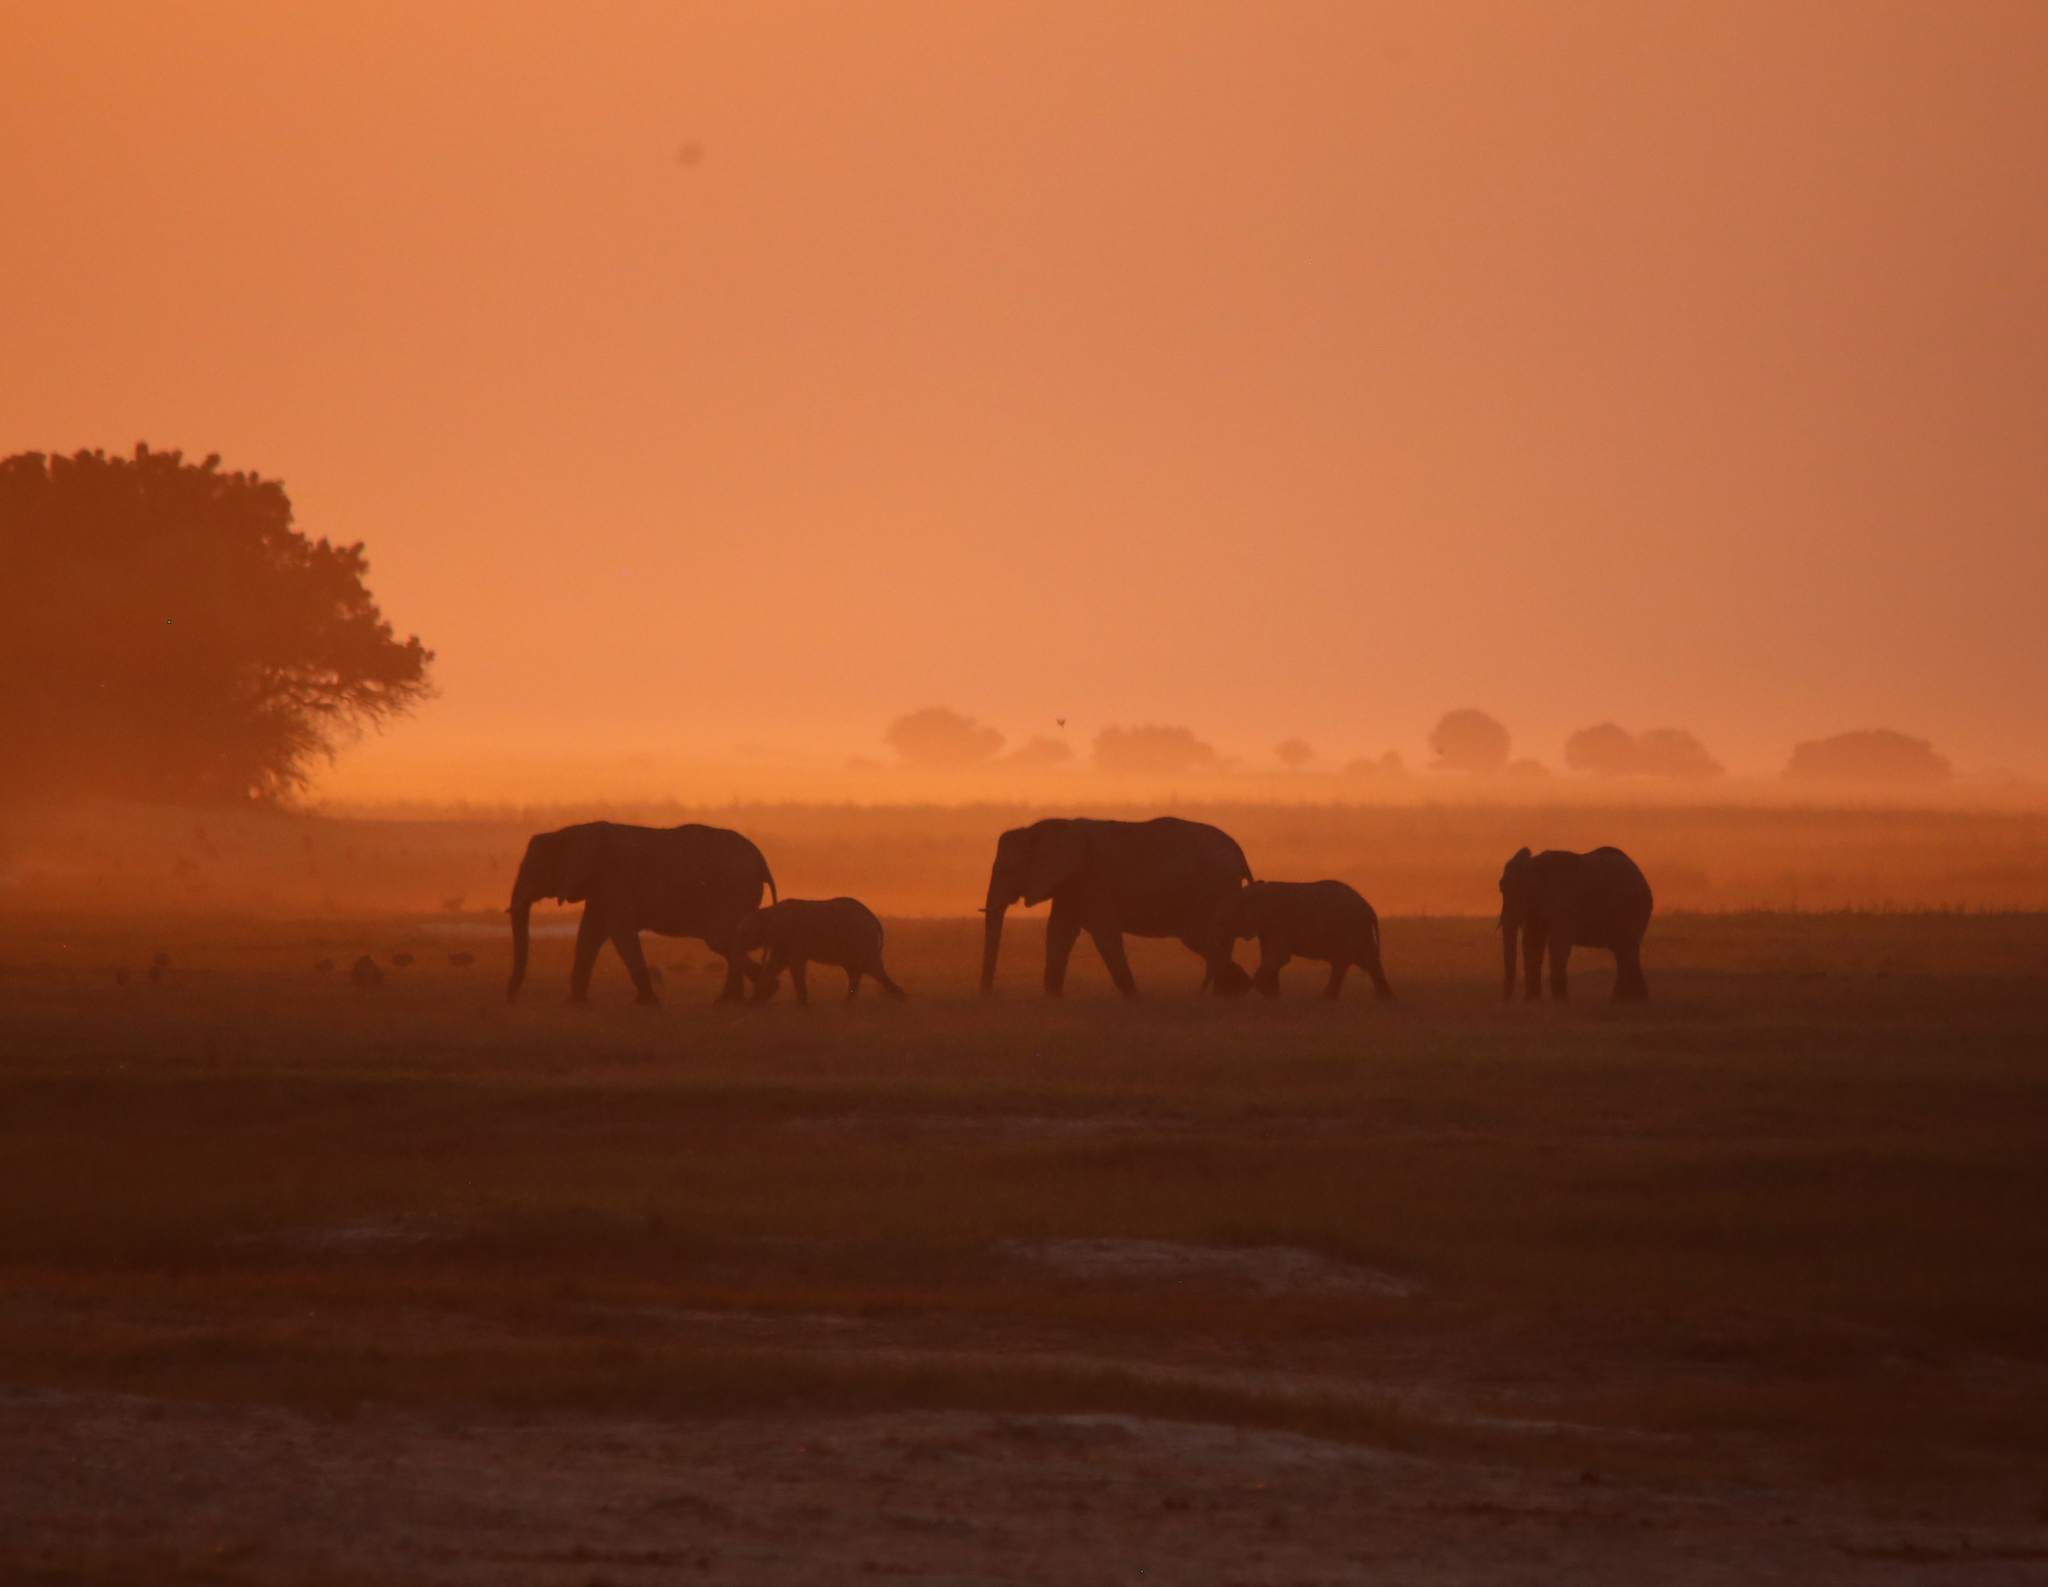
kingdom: Animalia
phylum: Chordata
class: Mammalia
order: Proboscidea
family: Elephantidae
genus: Loxodonta
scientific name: Loxodonta africana
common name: African elephant
